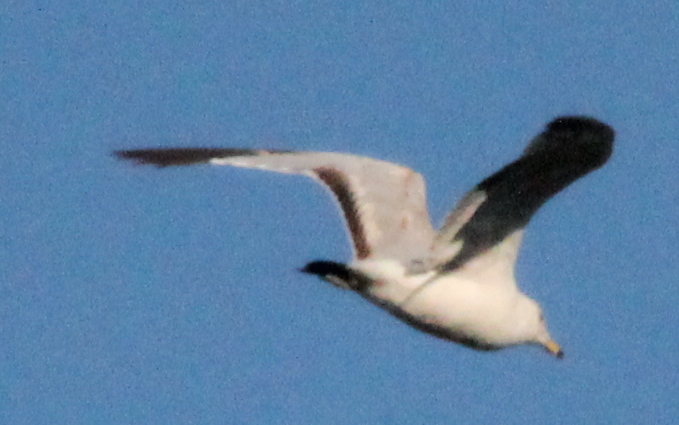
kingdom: Animalia
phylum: Chordata
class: Aves
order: Charadriiformes
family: Laridae
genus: Larus
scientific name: Larus delawarensis
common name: Ring-billed gull
